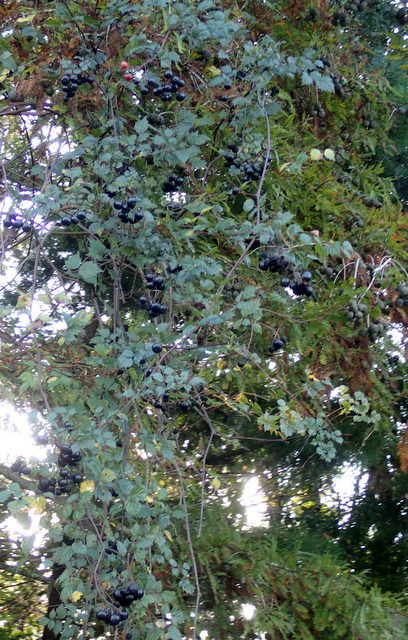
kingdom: Plantae
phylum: Tracheophyta
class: Magnoliopsida
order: Vitales
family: Vitaceae
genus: Nekemias
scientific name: Nekemias arborea
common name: Peppervine
